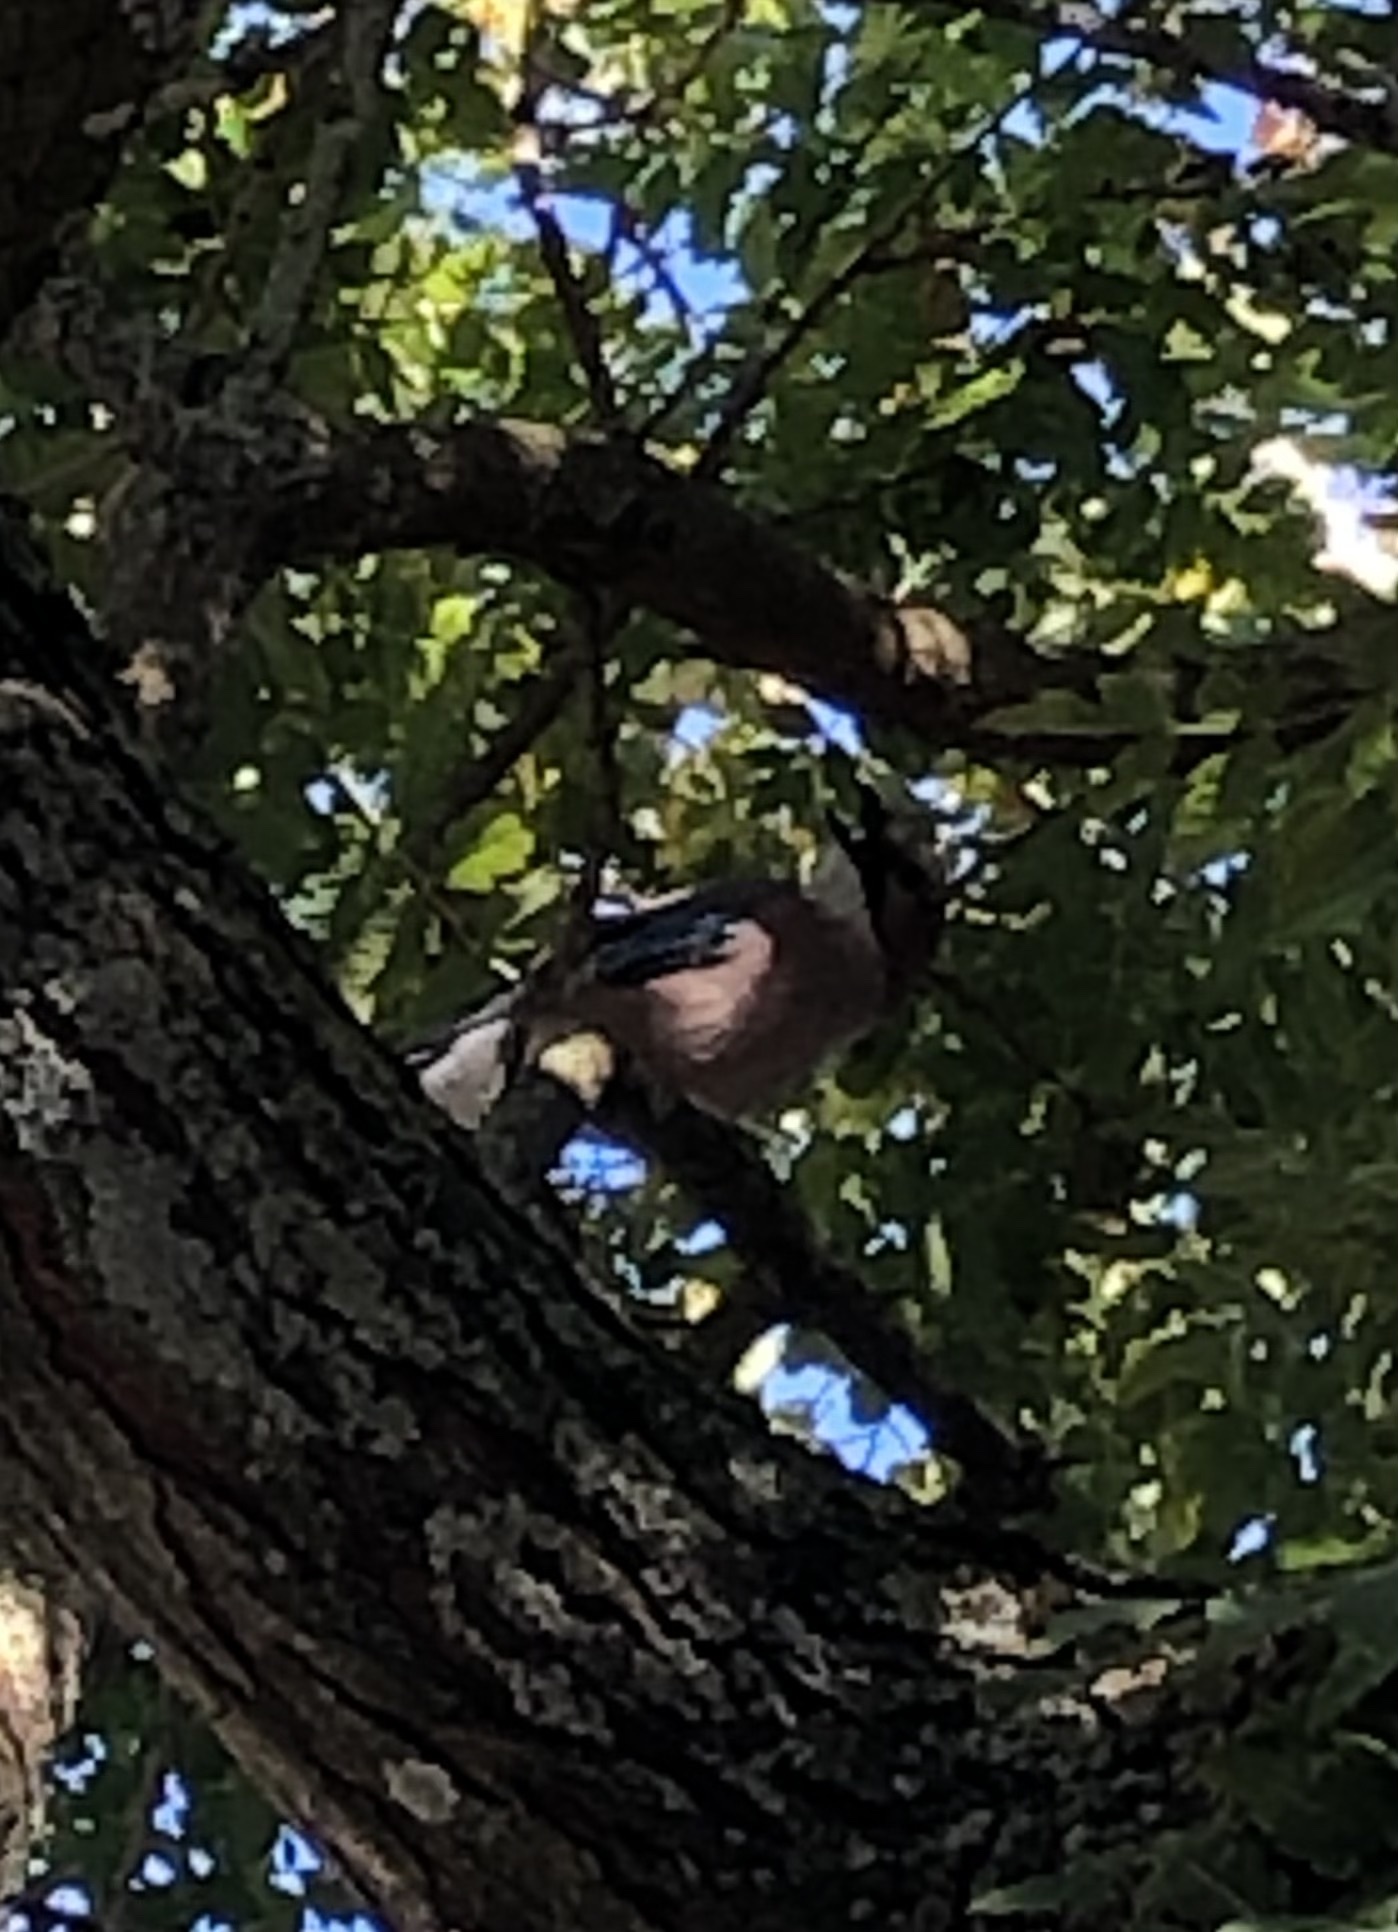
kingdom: Animalia
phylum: Chordata
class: Aves
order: Passeriformes
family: Corvidae
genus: Garrulus
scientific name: Garrulus glandarius
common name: Eurasian jay
